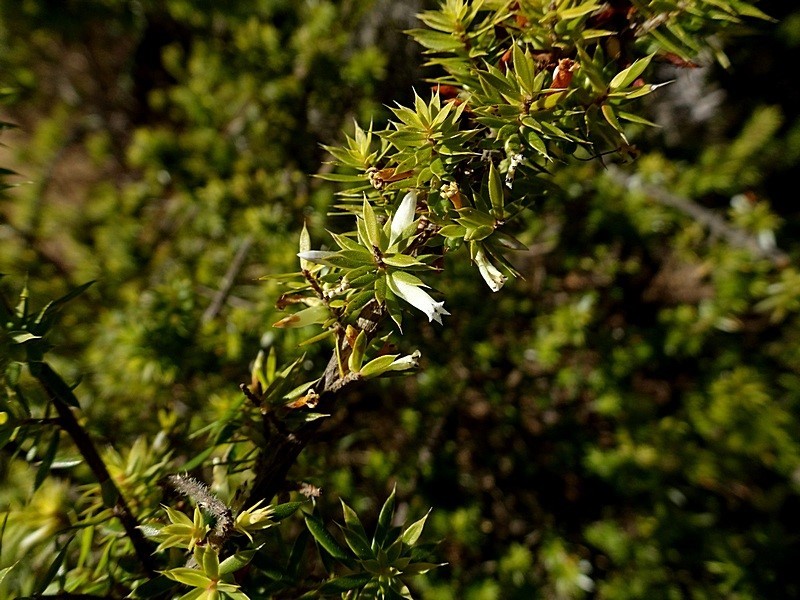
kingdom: Plantae
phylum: Tracheophyta
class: Magnoliopsida
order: Ericales
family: Ericaceae
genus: Styphelia
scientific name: Styphelia sieberi
